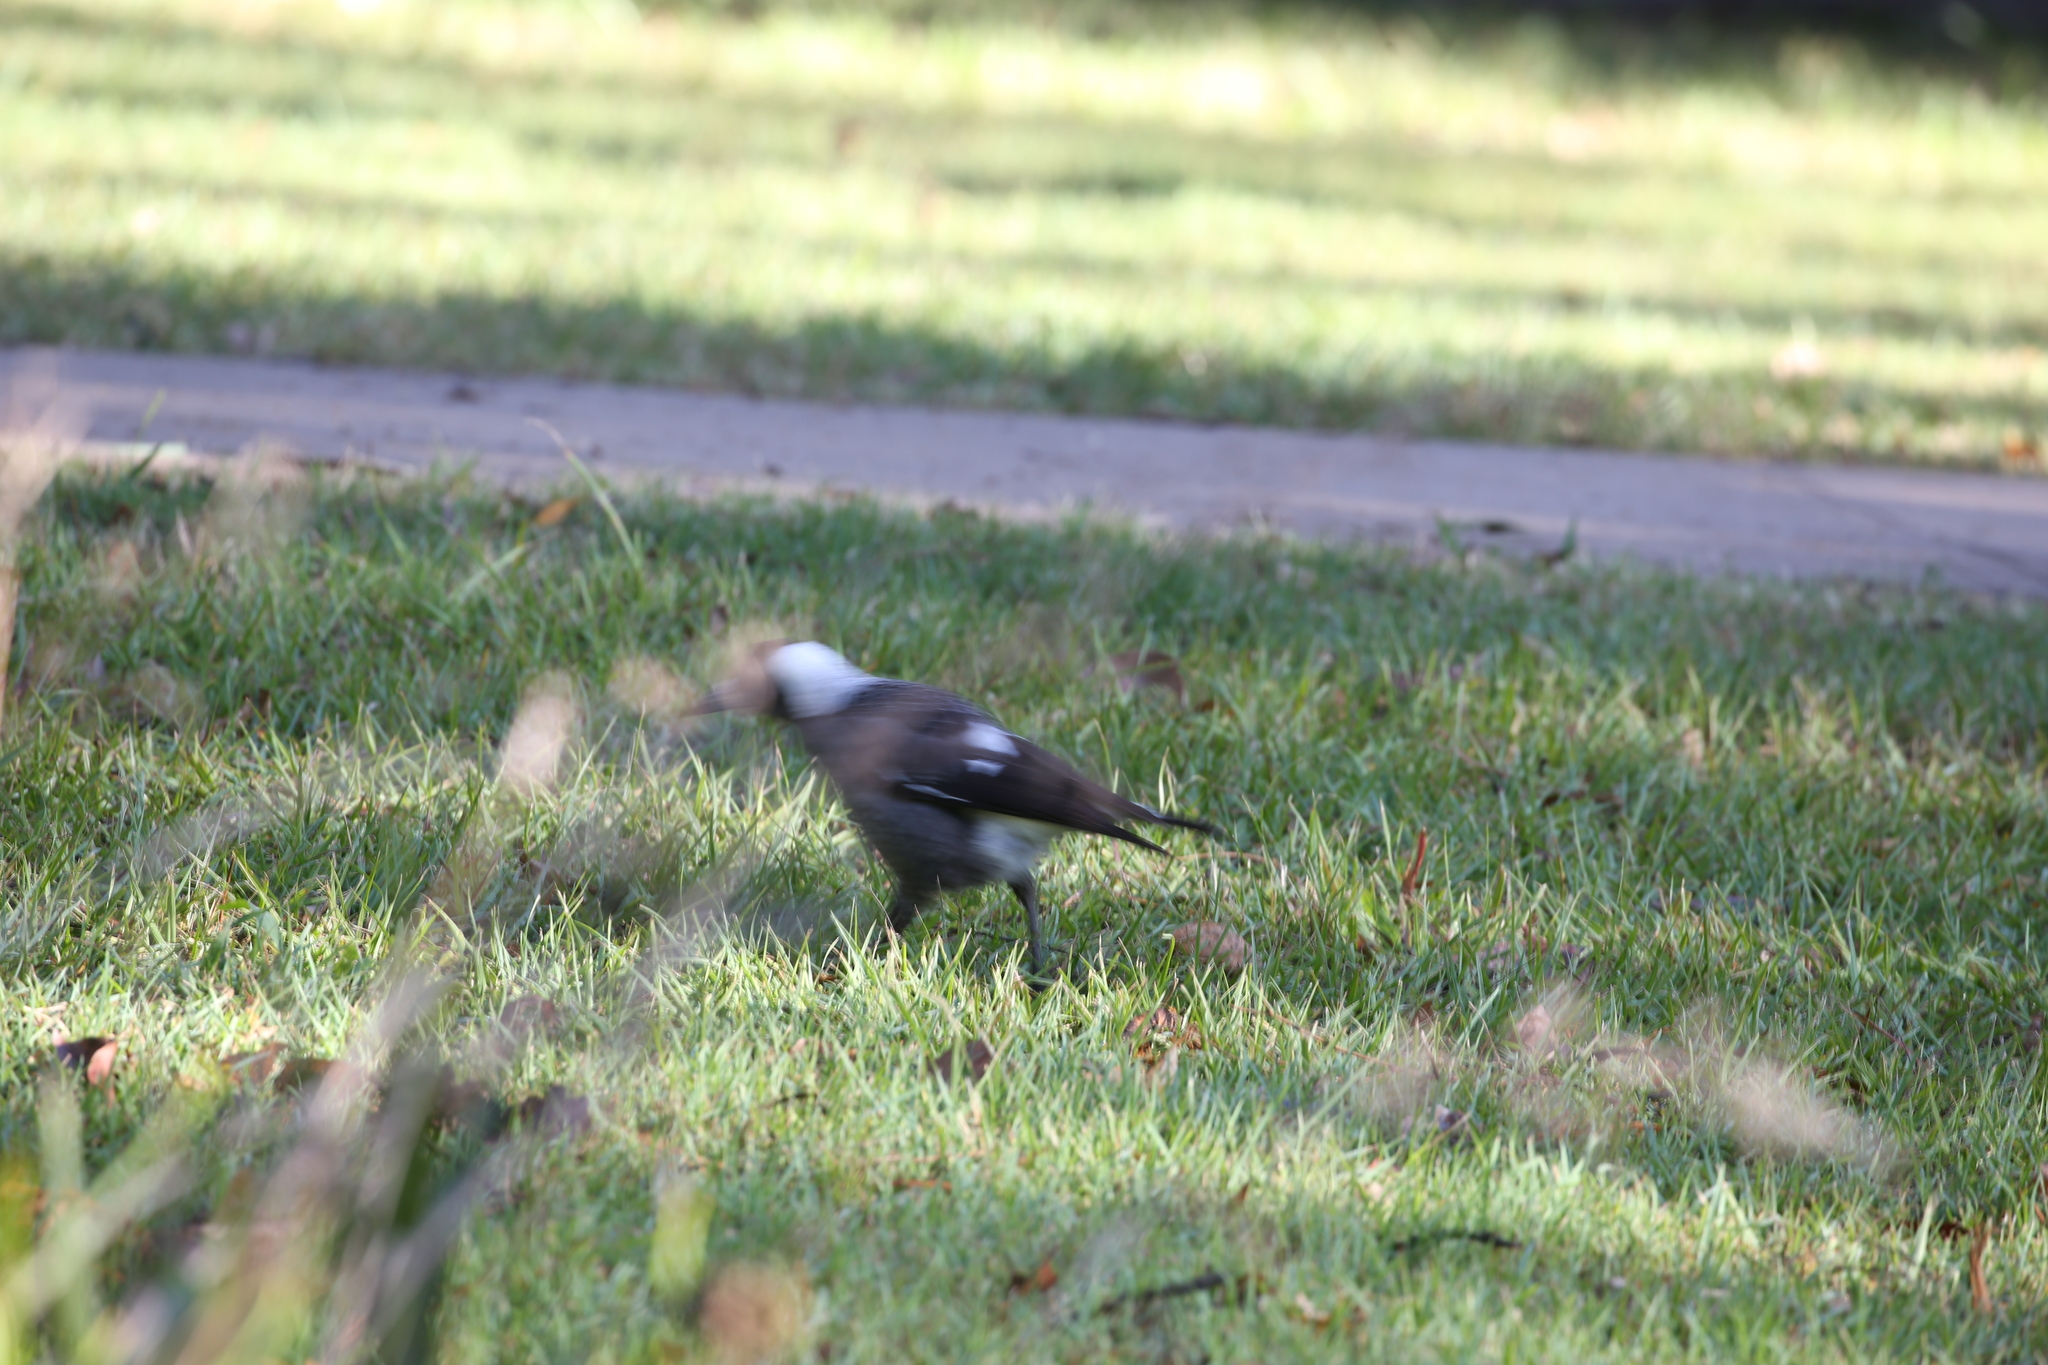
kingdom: Animalia
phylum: Chordata
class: Aves
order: Passeriformes
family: Cracticidae
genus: Gymnorhina
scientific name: Gymnorhina tibicen
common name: Australian magpie
